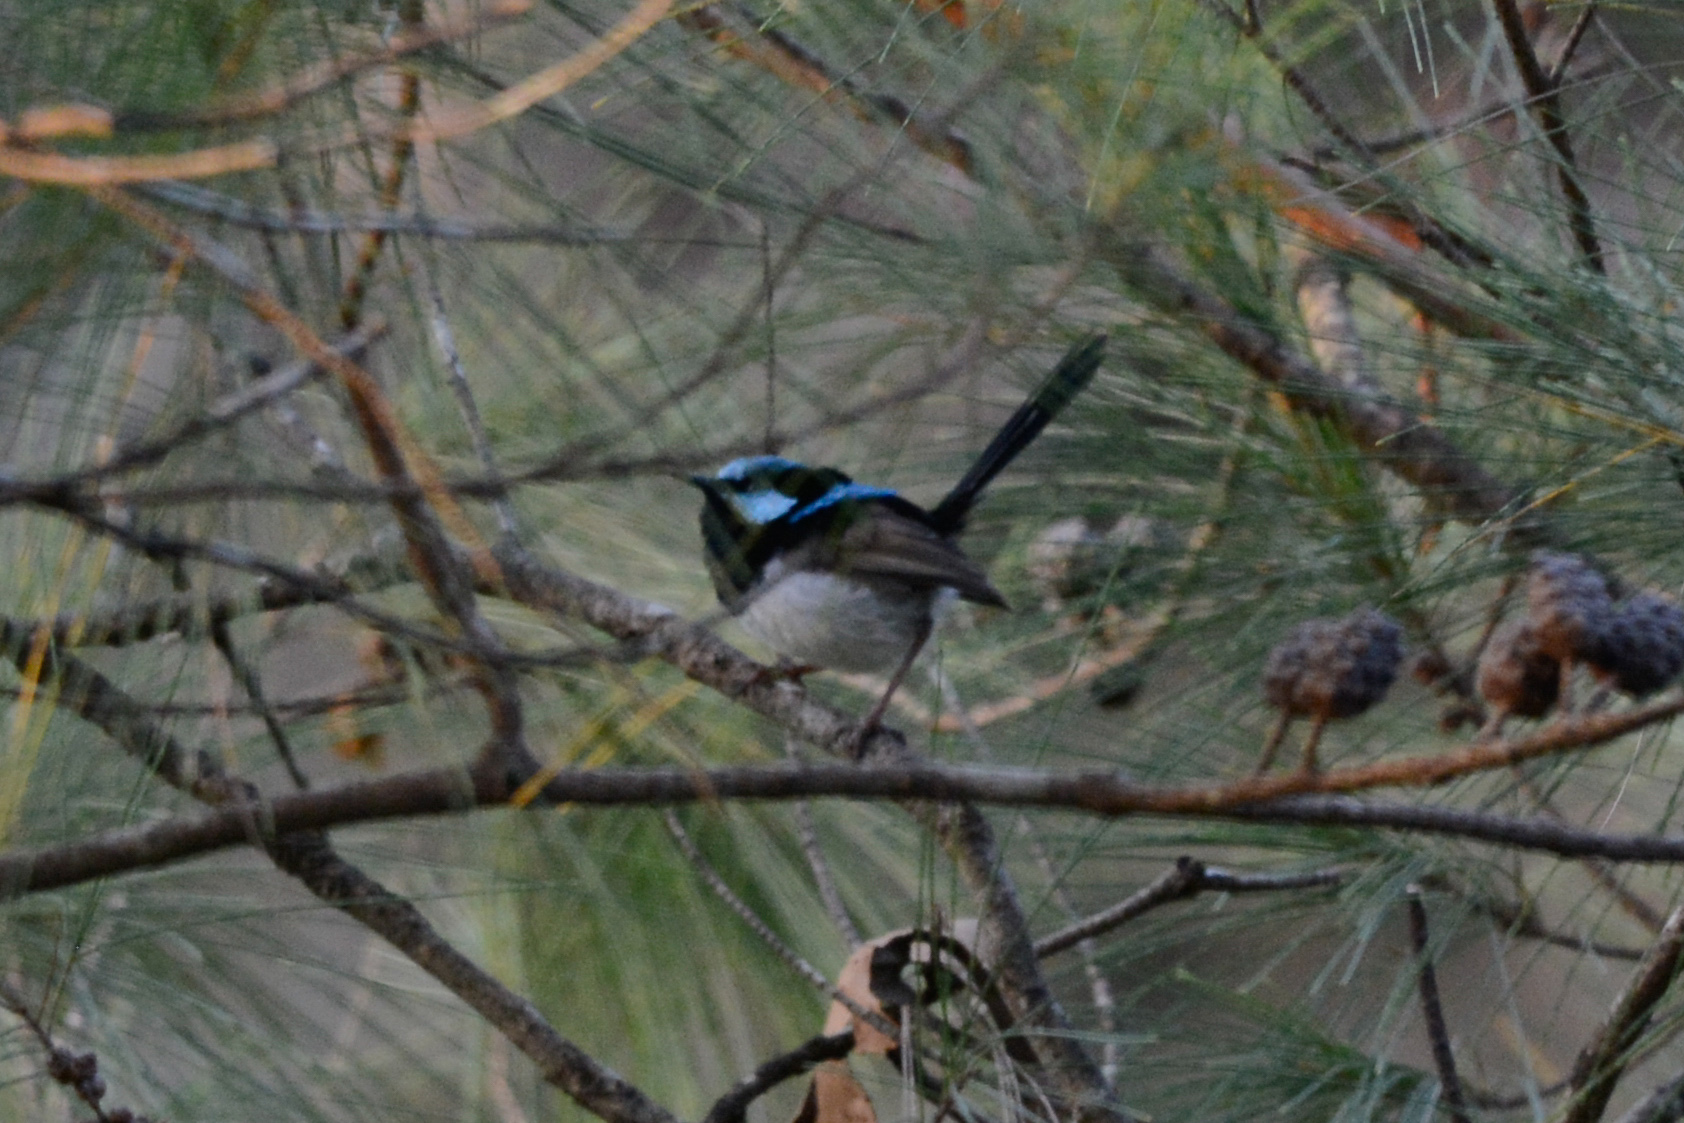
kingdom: Animalia
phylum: Chordata
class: Aves
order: Passeriformes
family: Maluridae
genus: Malurus
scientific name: Malurus cyaneus
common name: Superb fairywren
